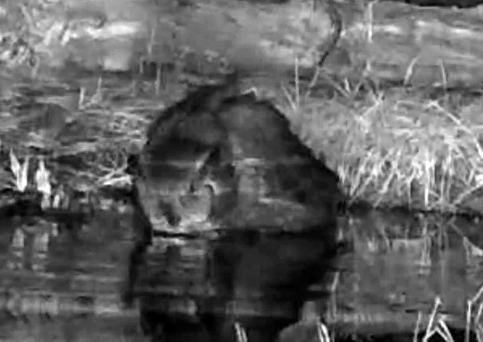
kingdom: Animalia
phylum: Chordata
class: Aves
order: Strigiformes
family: Strigidae
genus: Bubo
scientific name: Bubo virginianus
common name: Great horned owl
